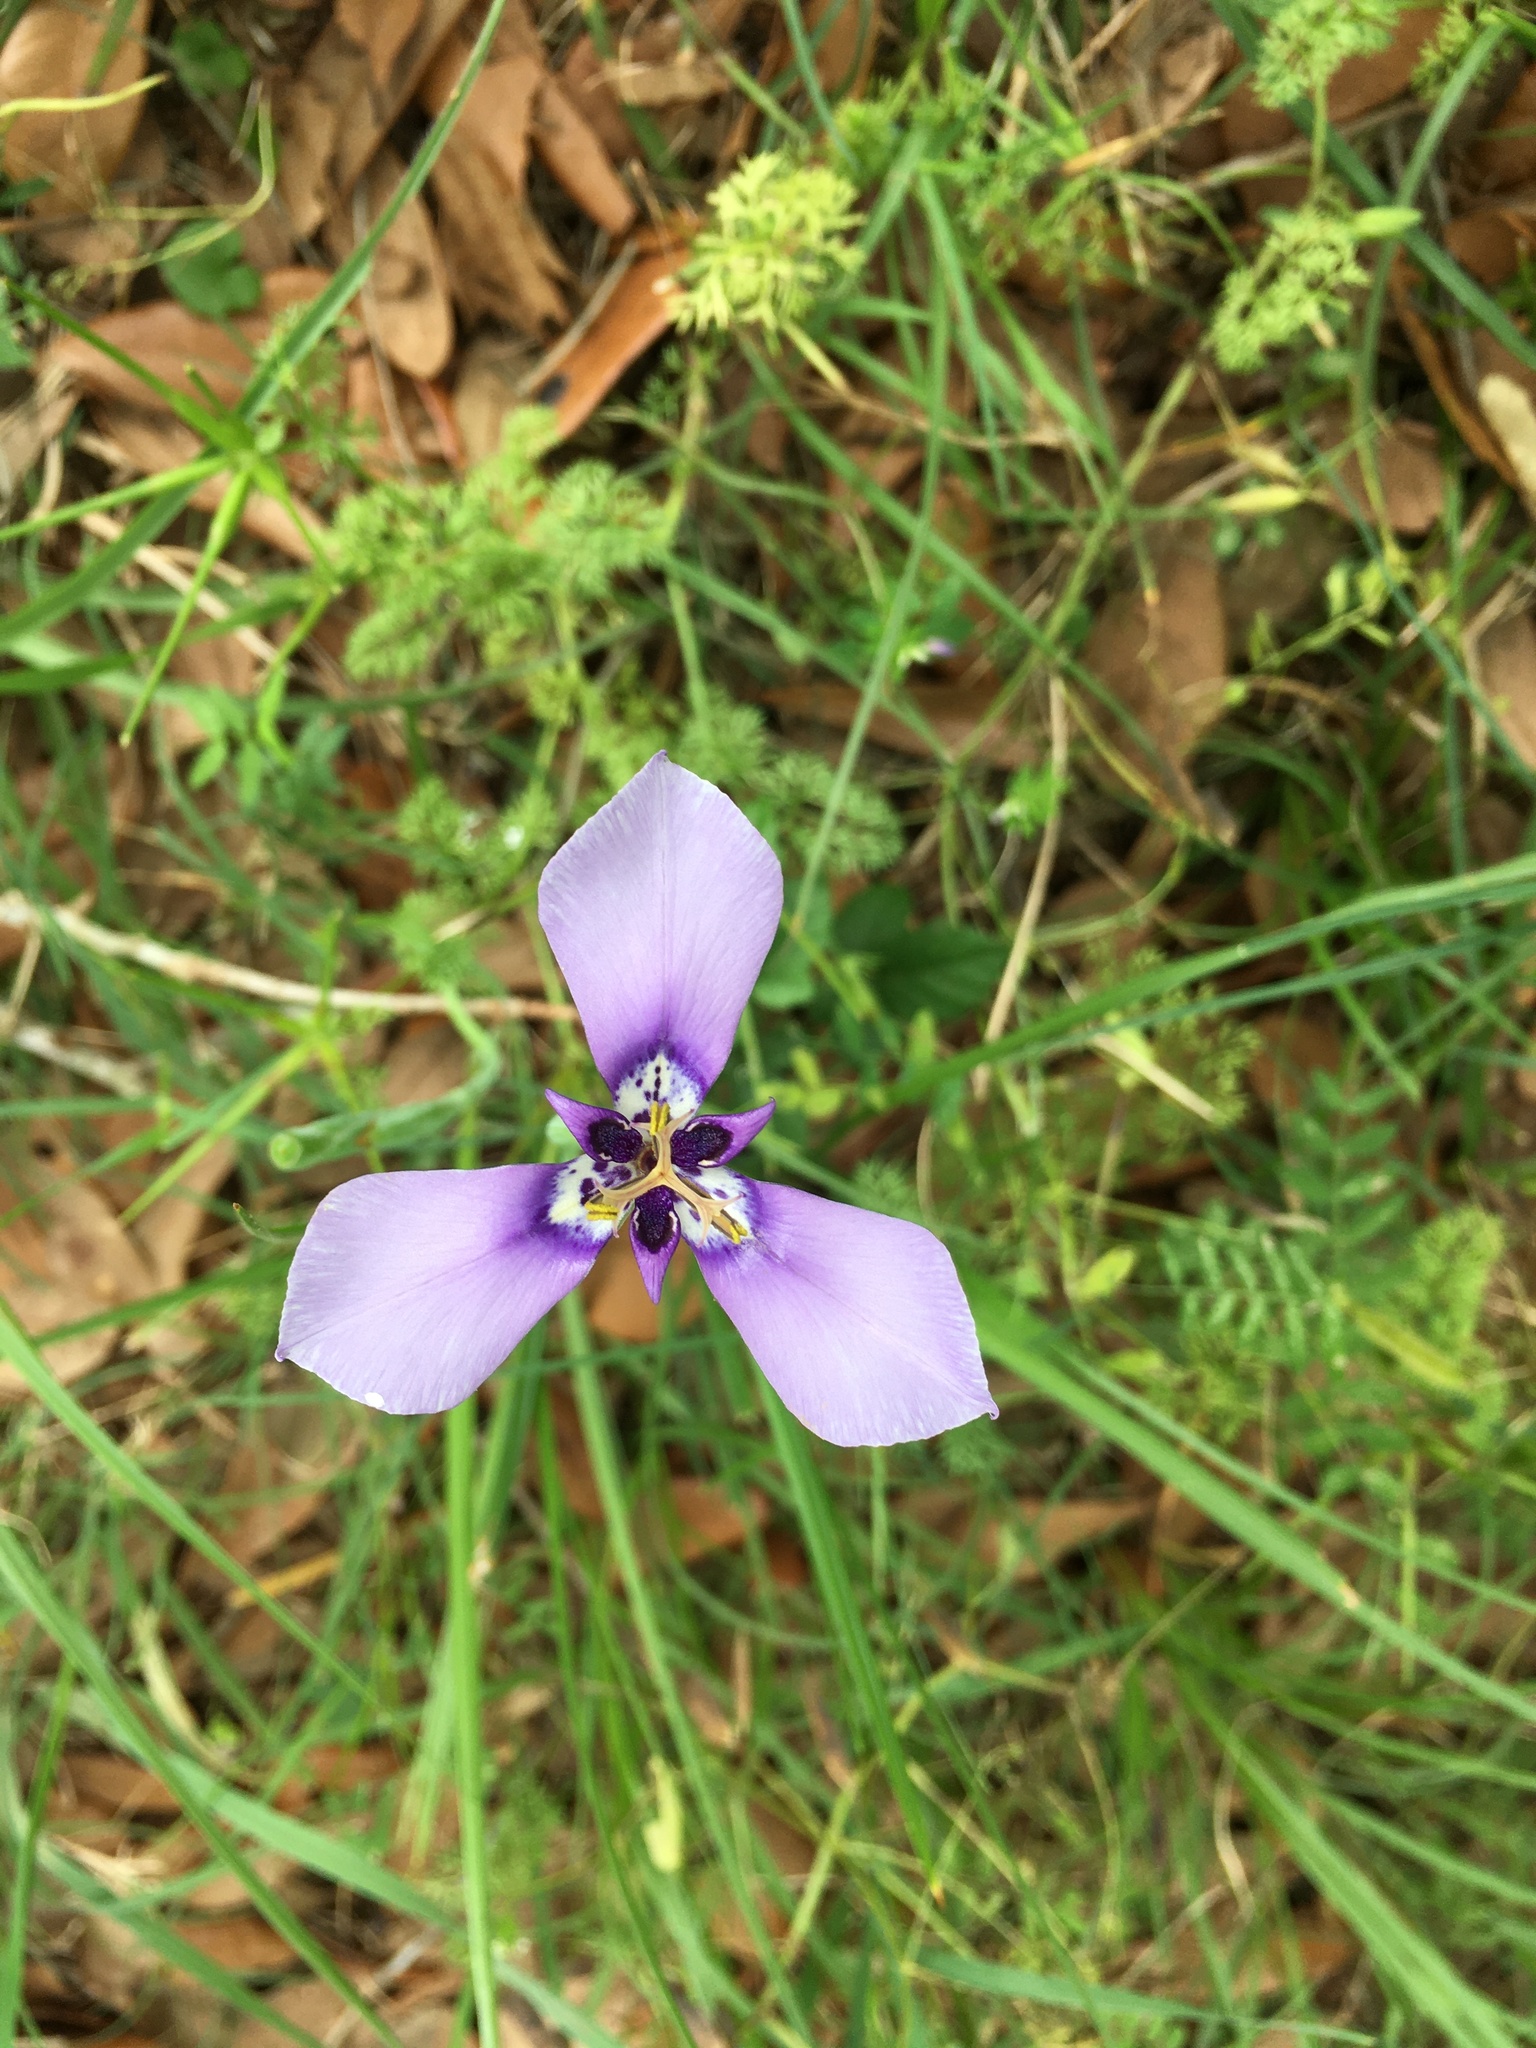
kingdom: Plantae
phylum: Tracheophyta
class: Liliopsida
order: Asparagales
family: Iridaceae
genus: Herbertia
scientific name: Herbertia lahue
